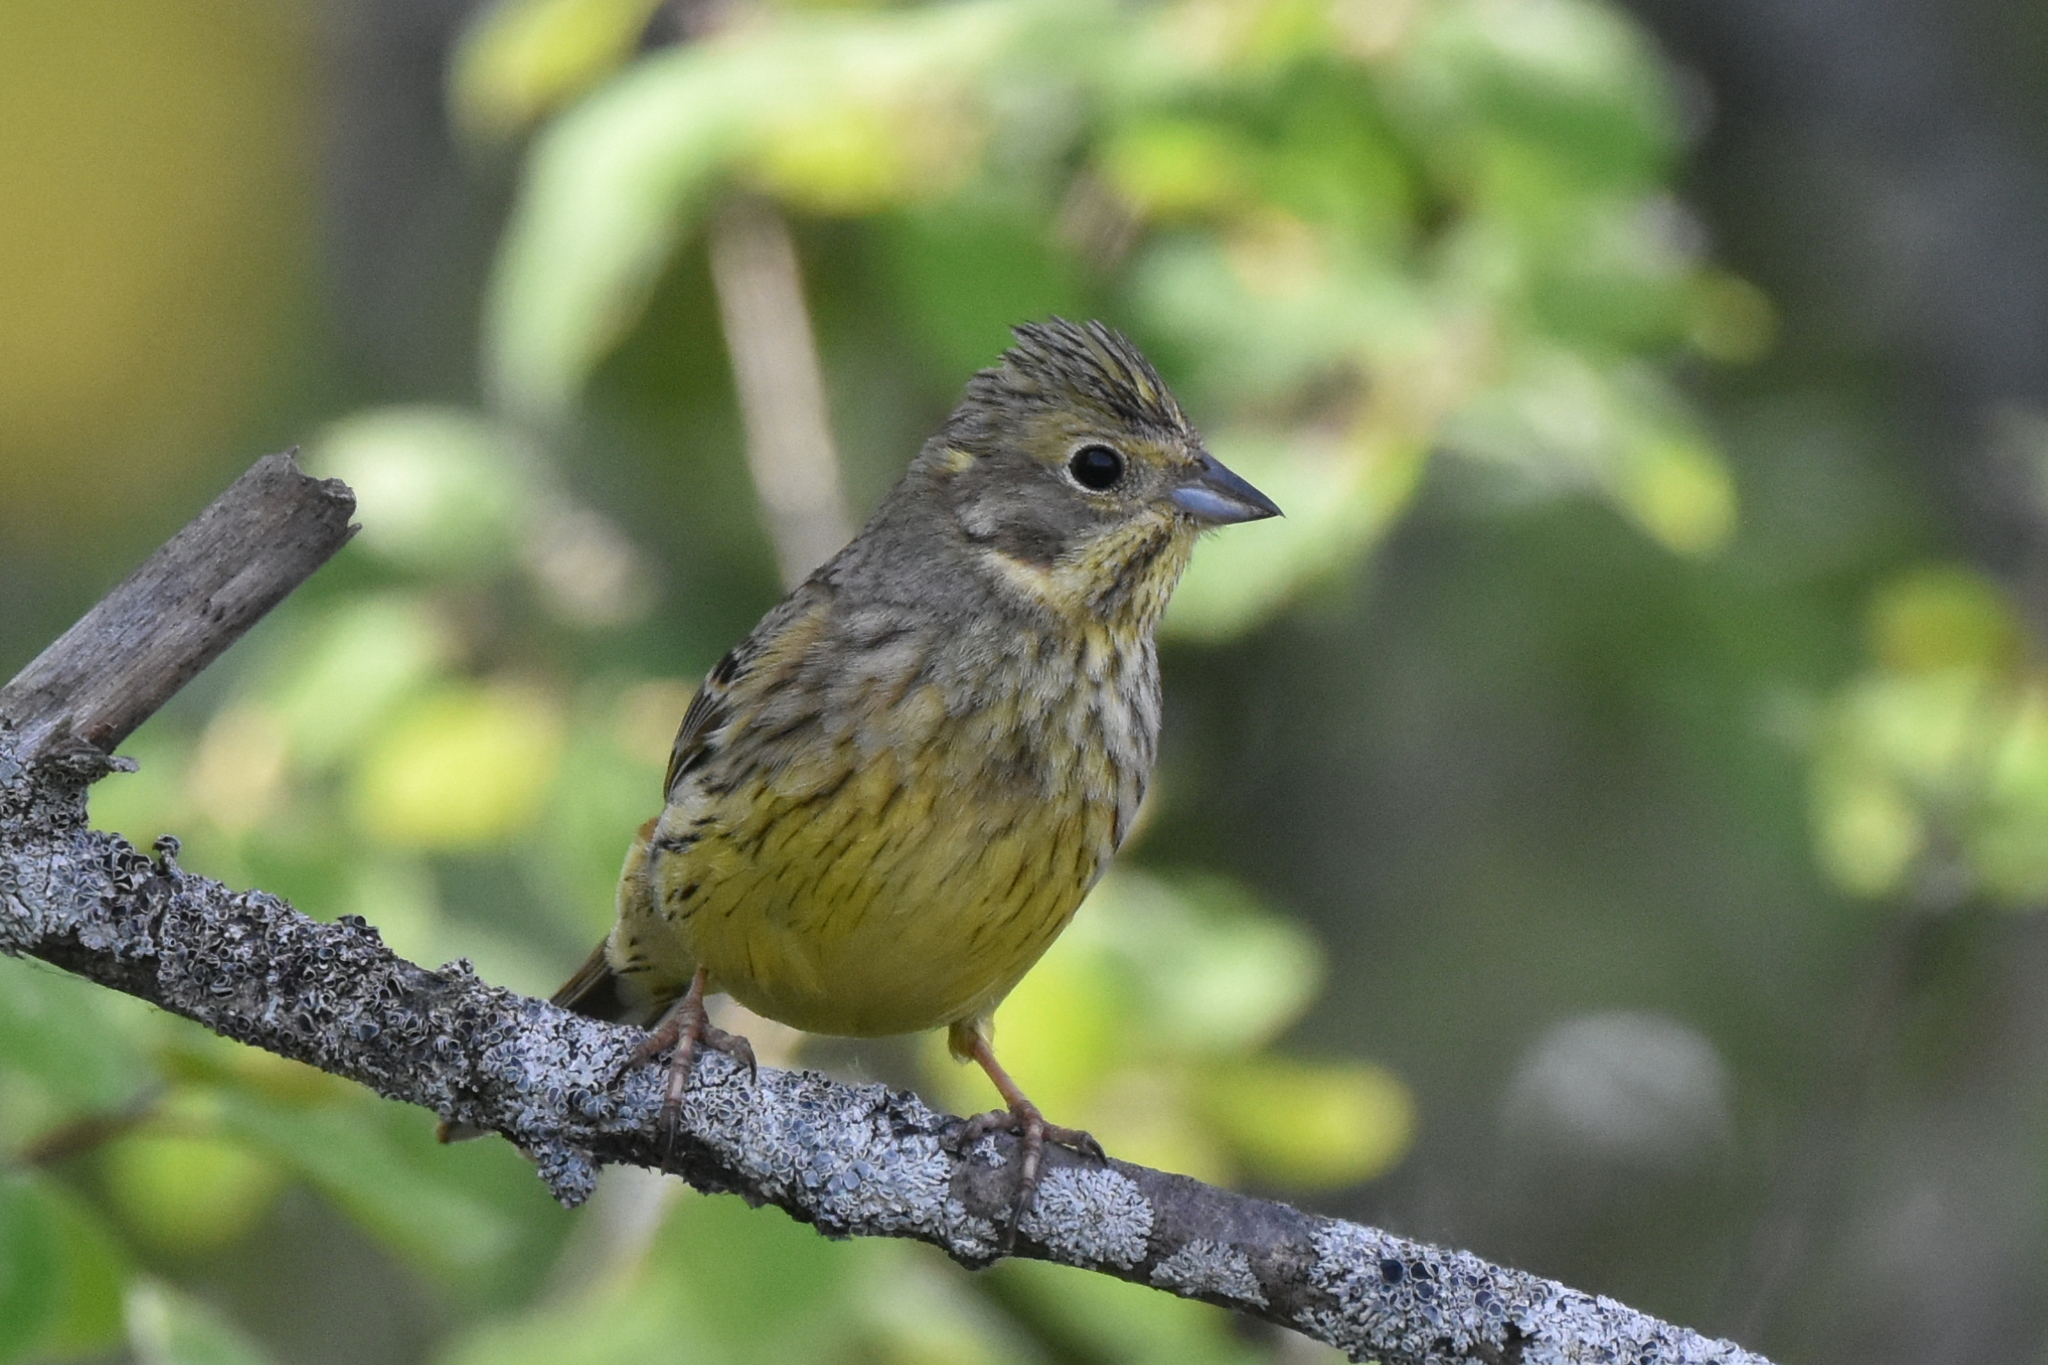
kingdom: Animalia
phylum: Chordata
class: Aves
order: Passeriformes
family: Emberizidae
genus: Emberiza
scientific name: Emberiza citrinella
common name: Yellowhammer
